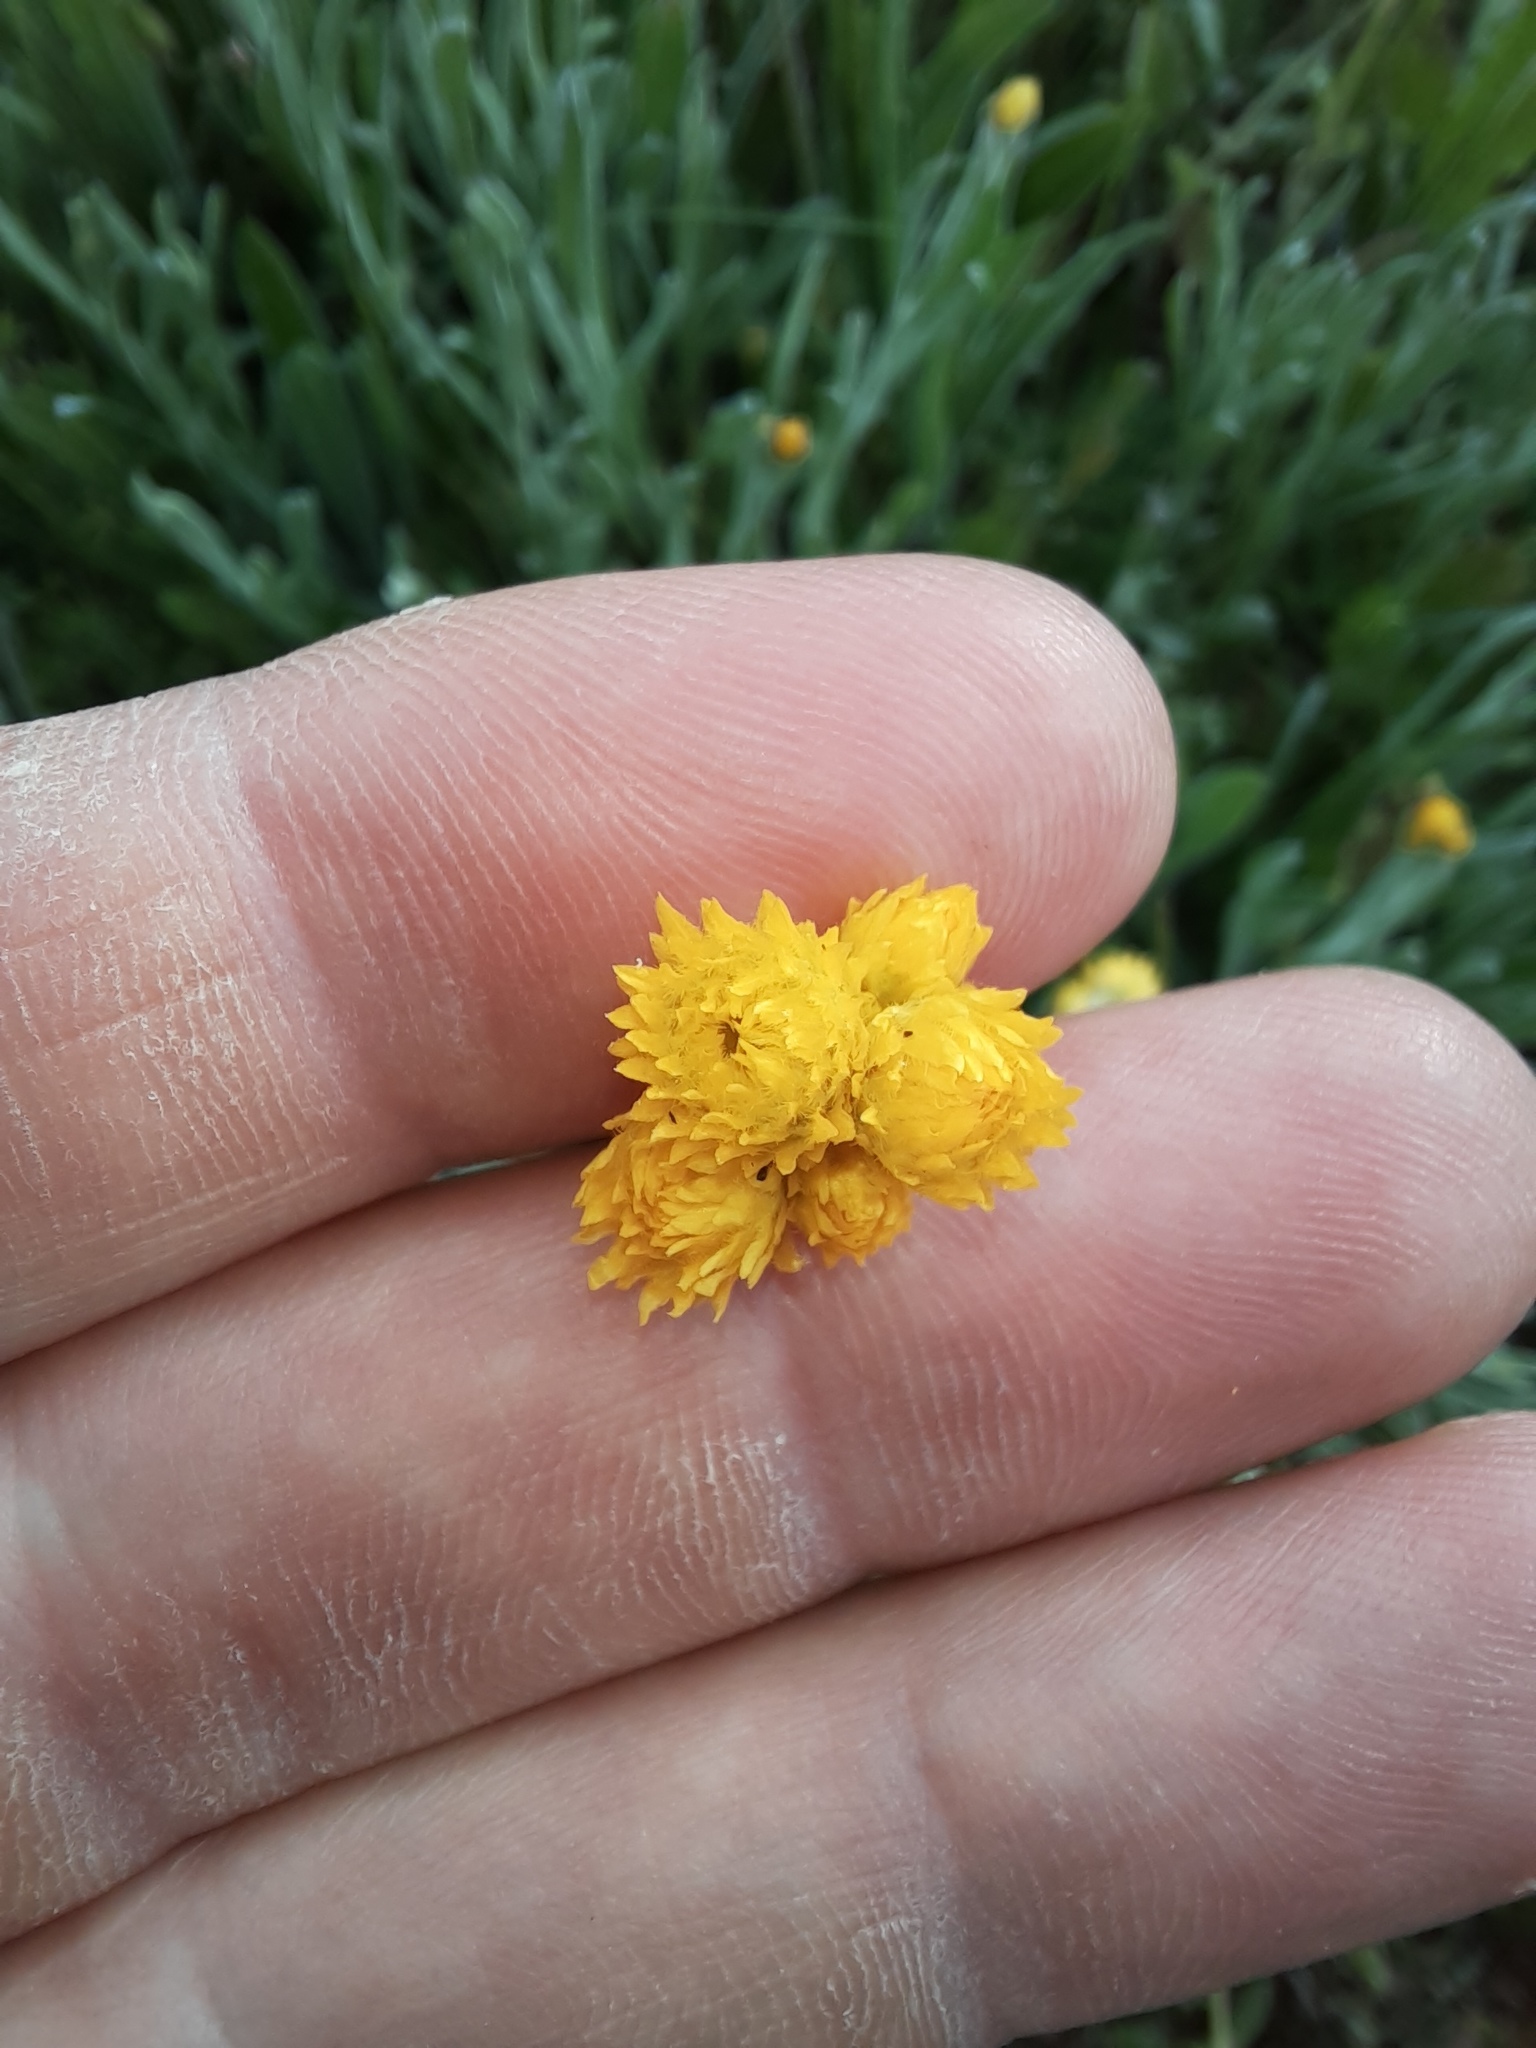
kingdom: Plantae
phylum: Tracheophyta
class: Magnoliopsida
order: Asterales
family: Asteraceae
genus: Chrysocephalum
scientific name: Chrysocephalum apiculatum
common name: Common everlasting
